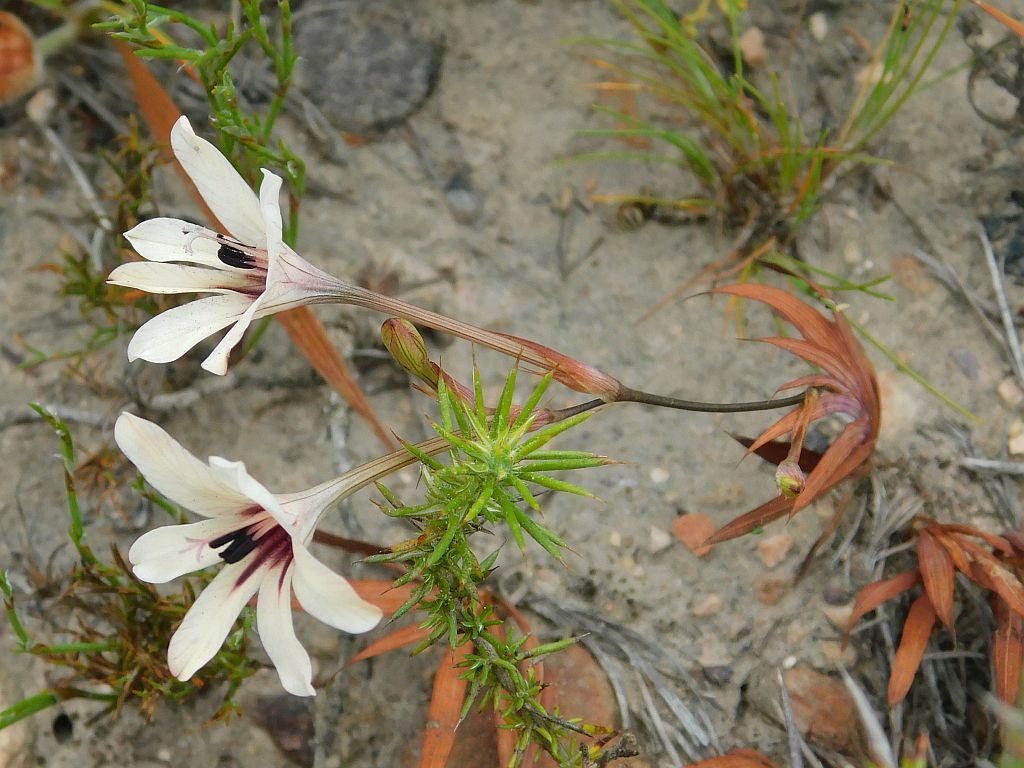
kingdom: Plantae
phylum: Tracheophyta
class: Liliopsida
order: Asparagales
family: Iridaceae
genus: Tritonia
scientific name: Tritonia flabellifolia
